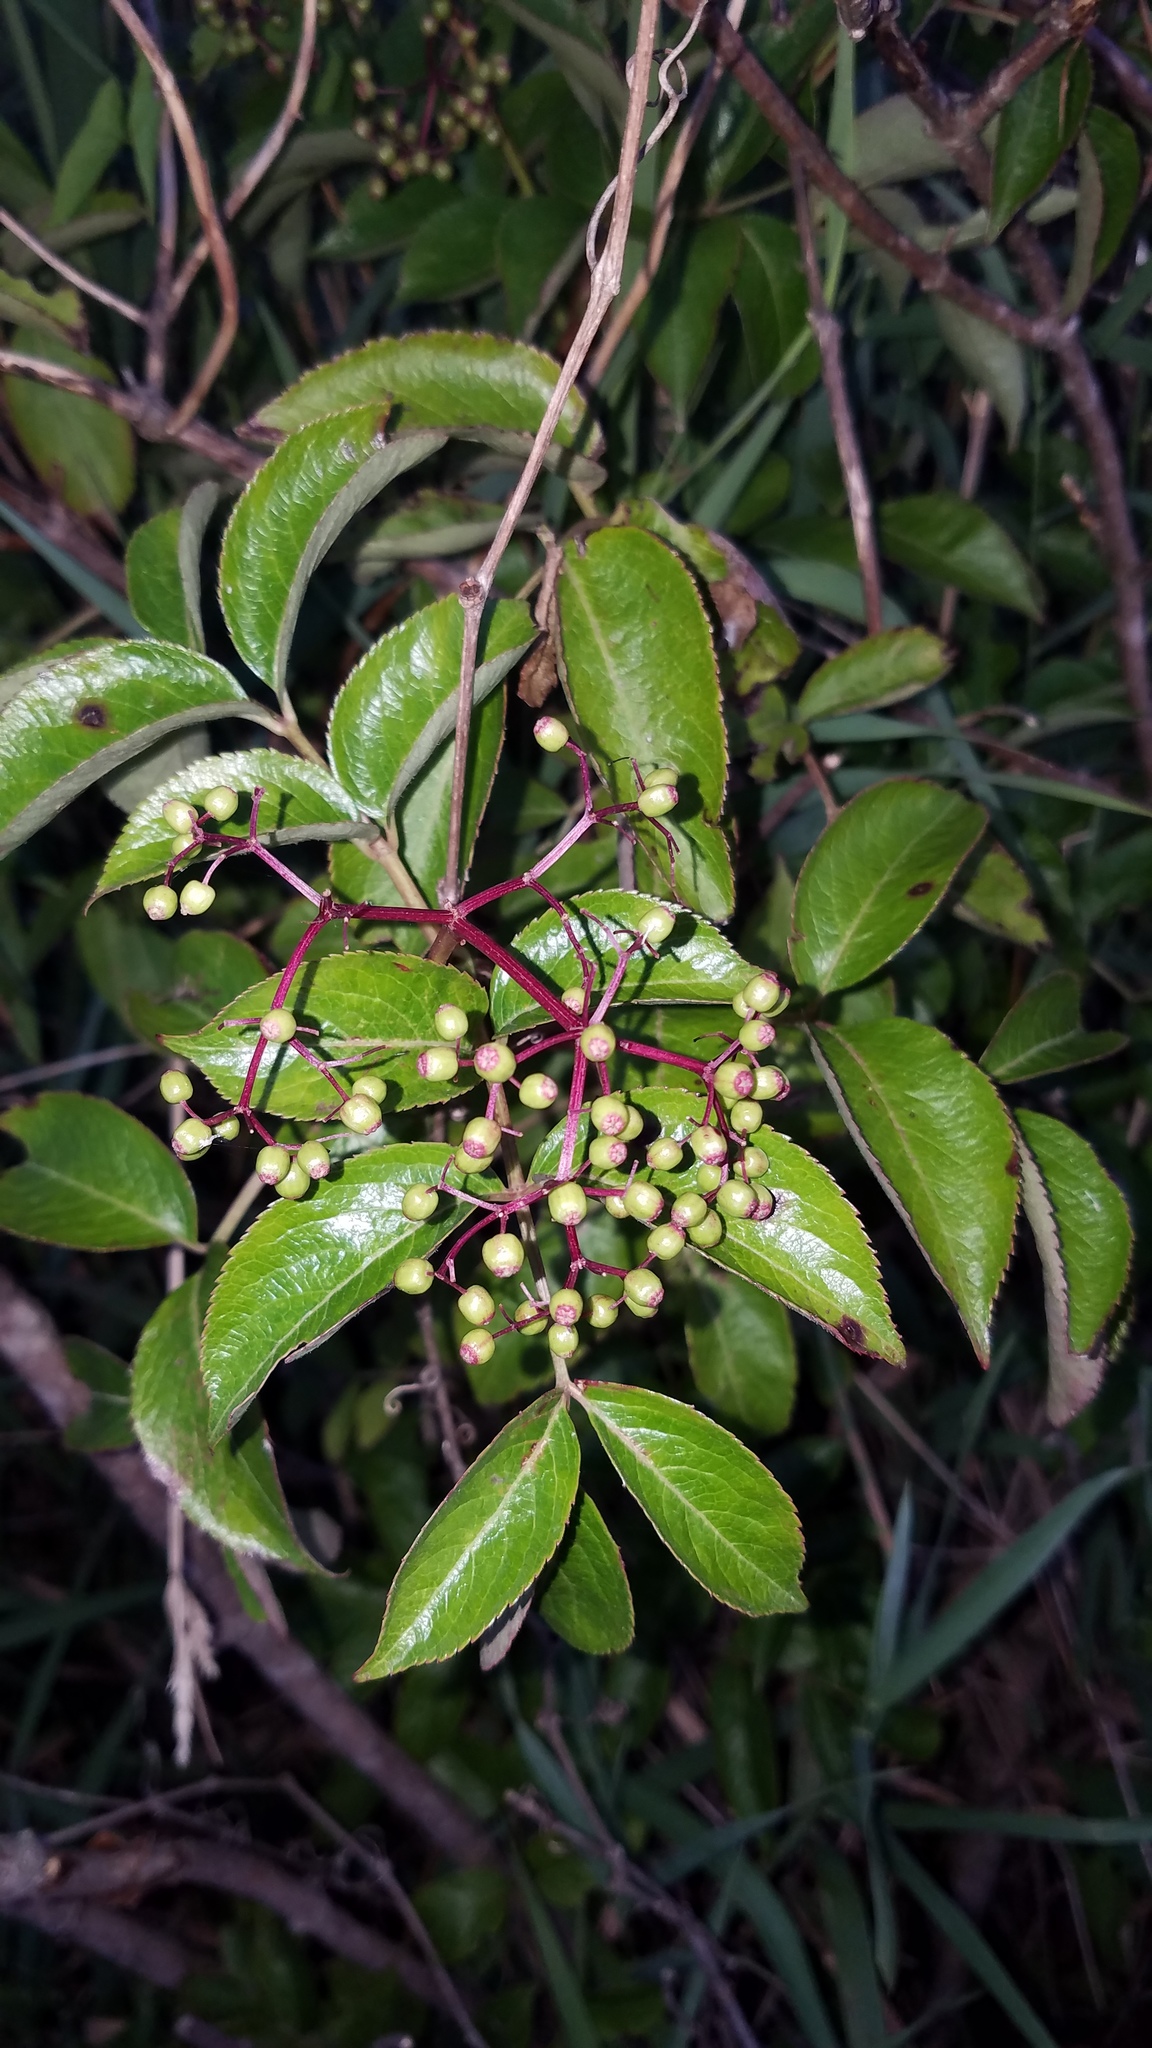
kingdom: Plantae
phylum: Tracheophyta
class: Magnoliopsida
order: Dipsacales
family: Viburnaceae
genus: Sambucus
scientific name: Sambucus canadensis
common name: American elder
